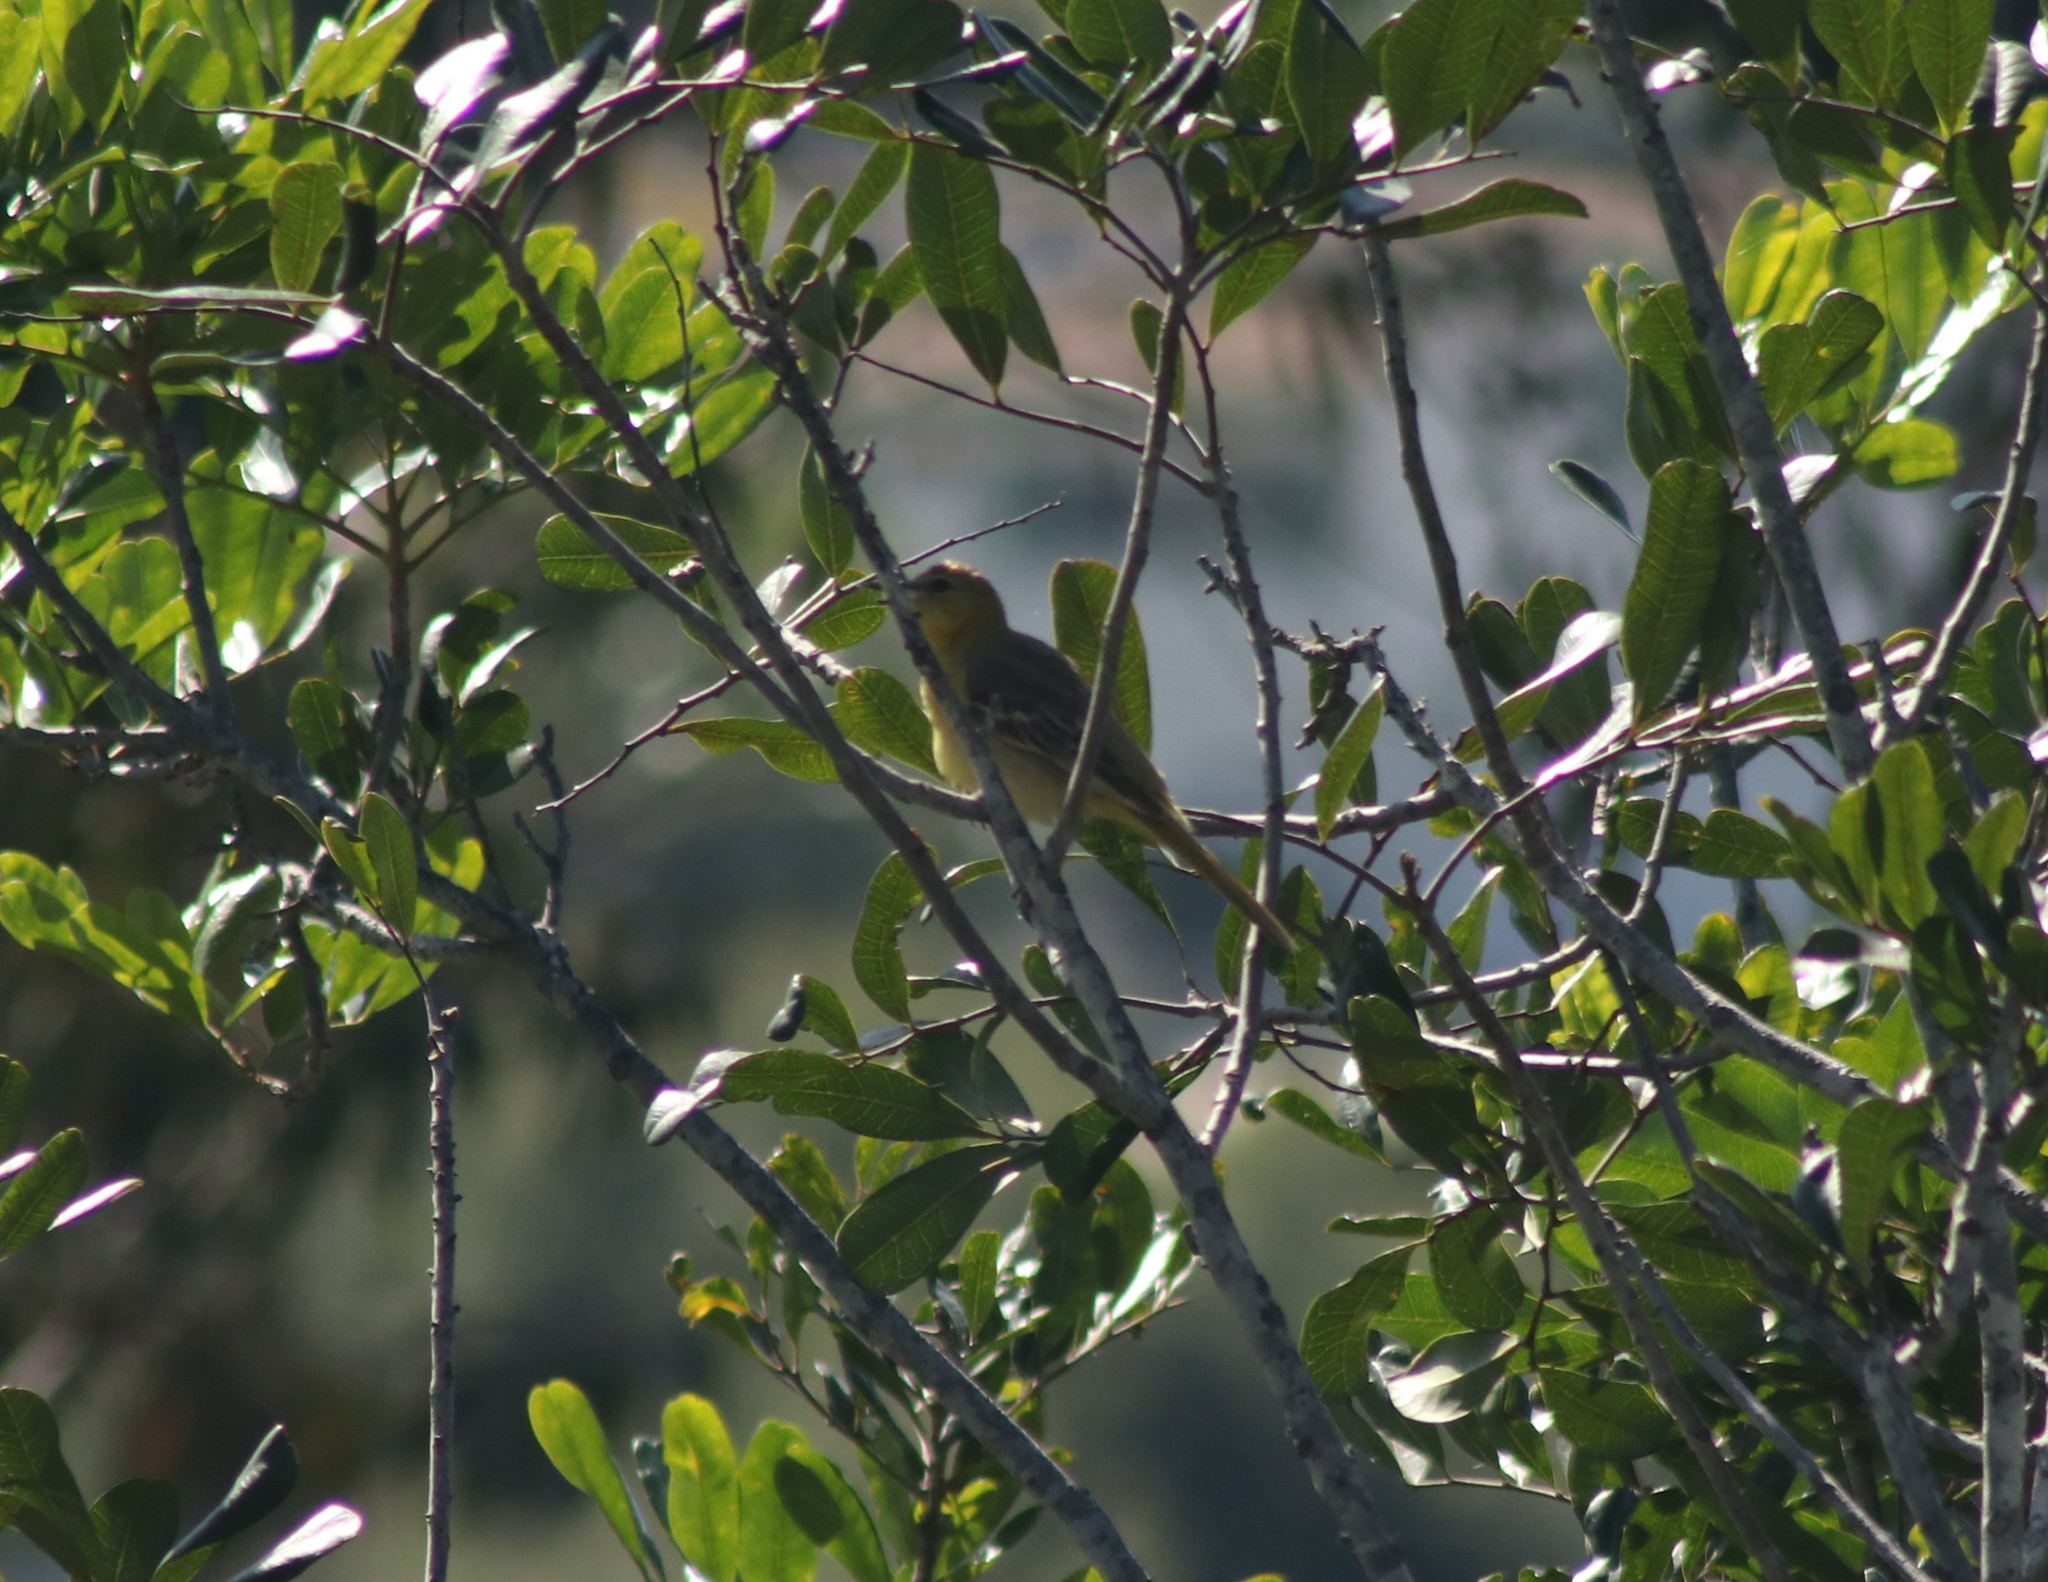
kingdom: Animalia
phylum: Chordata
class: Aves
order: Passeriformes
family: Icteridae
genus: Icterus
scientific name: Icterus cucullatus
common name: Hooded oriole
